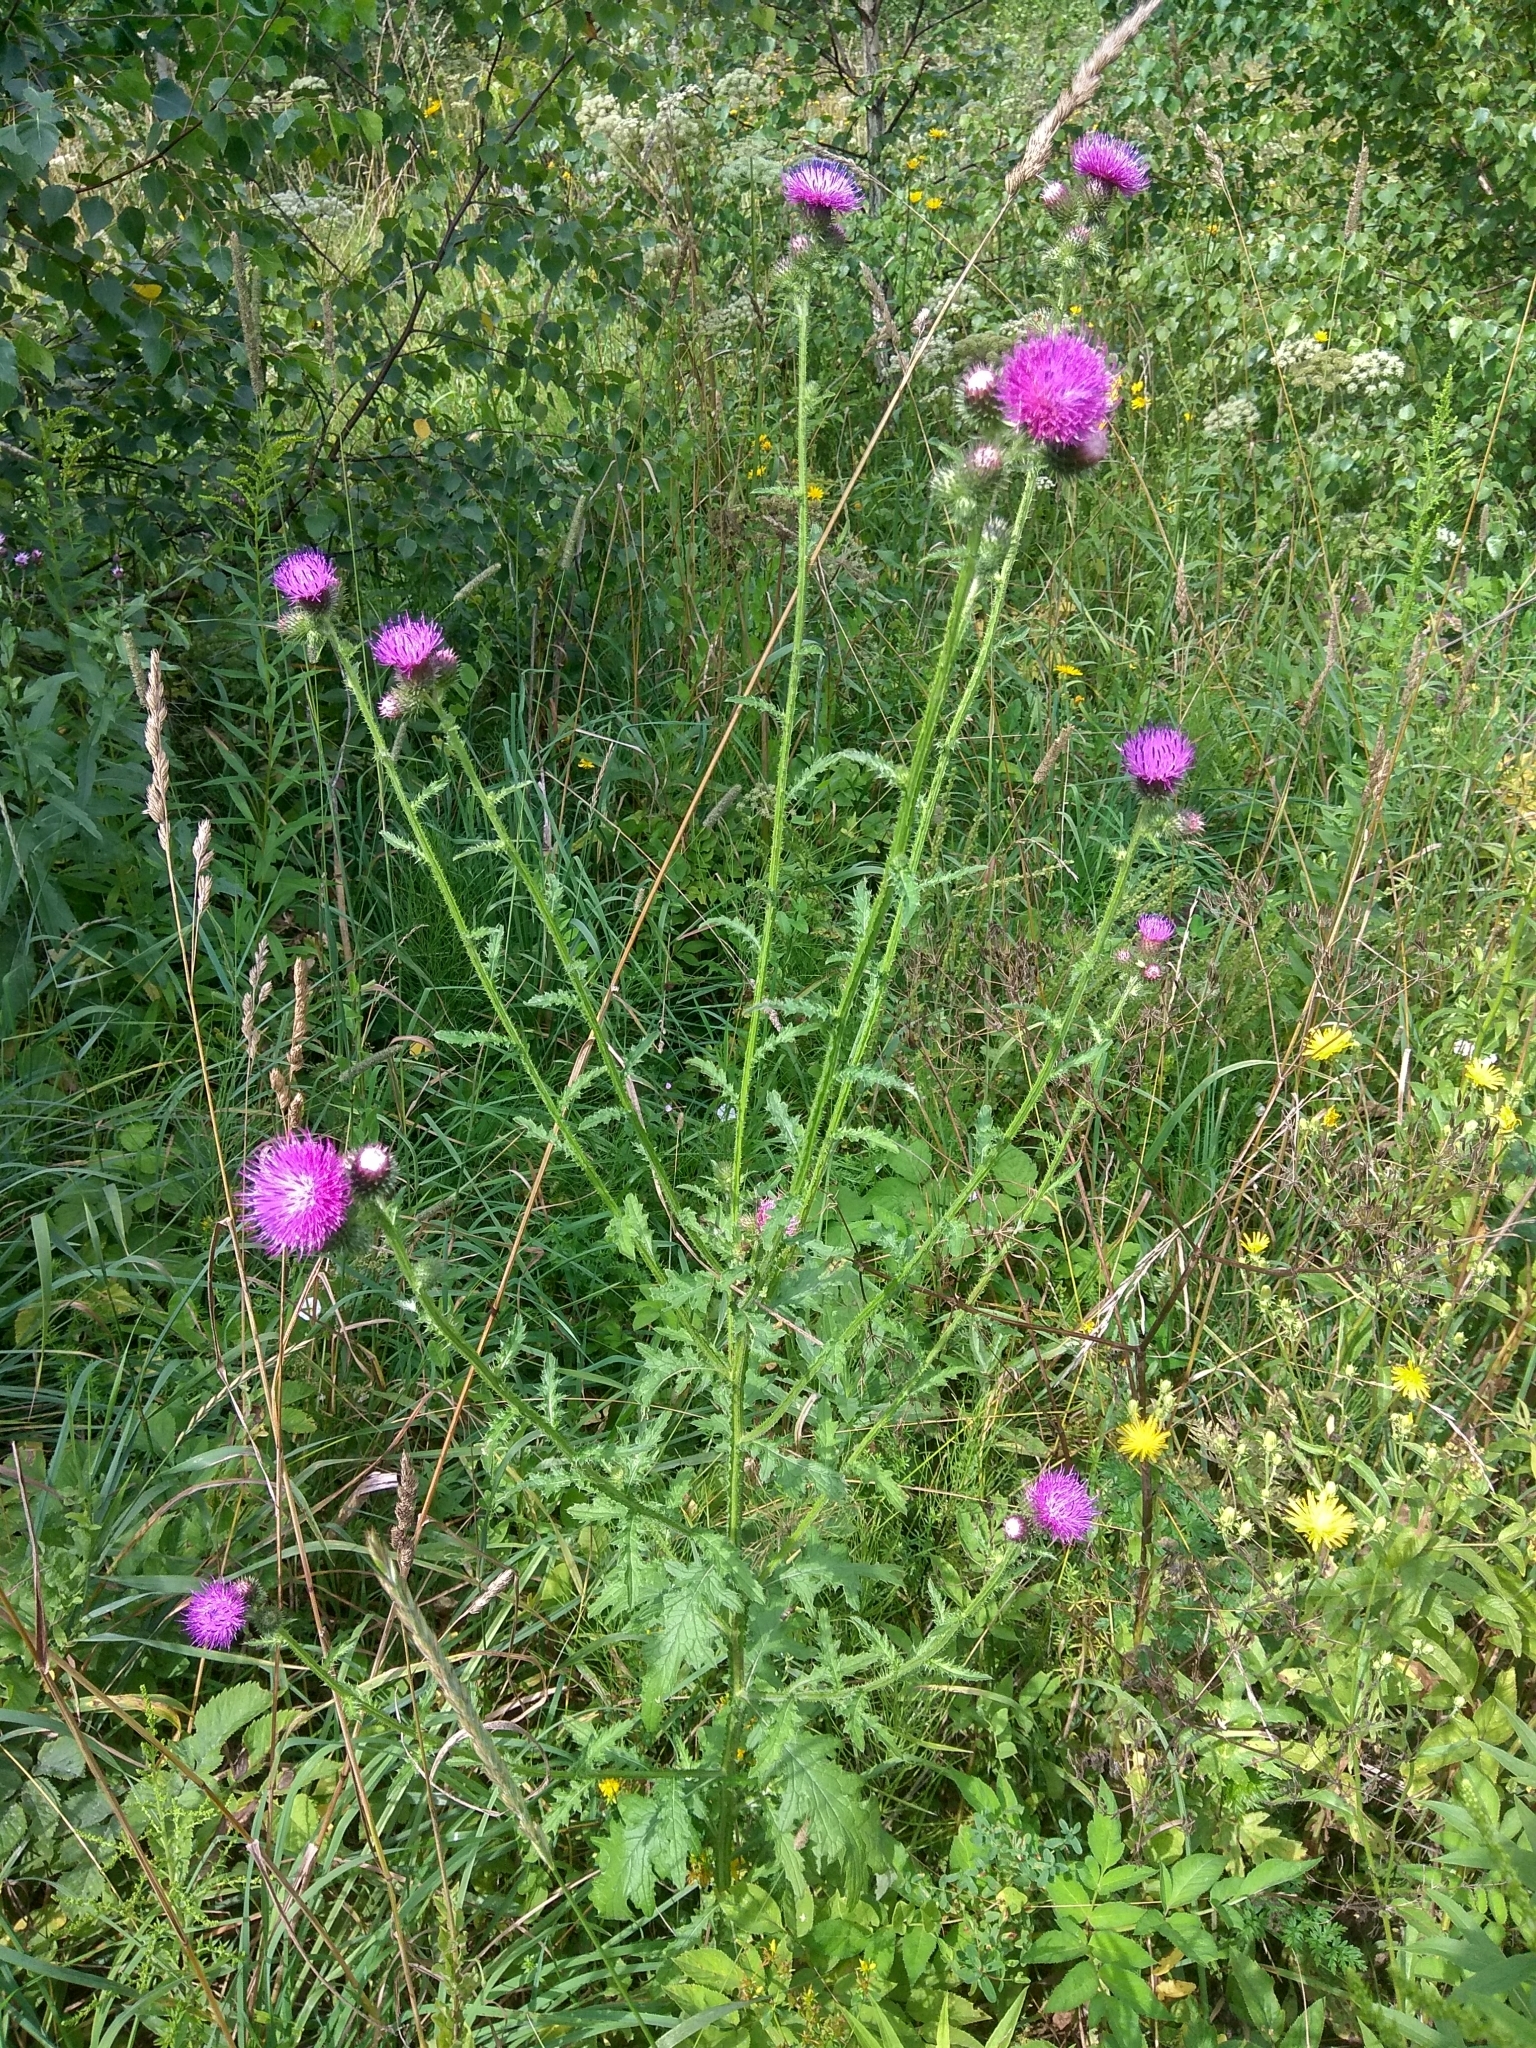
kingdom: Plantae
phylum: Tracheophyta
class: Magnoliopsida
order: Asterales
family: Asteraceae
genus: Carduus
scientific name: Carduus crispus
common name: Welted thistle
